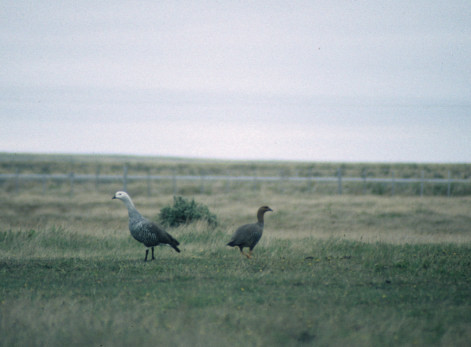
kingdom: Animalia
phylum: Chordata
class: Aves
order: Anseriformes
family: Anatidae
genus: Chloephaga
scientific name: Chloephaga picta
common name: Upland goose
